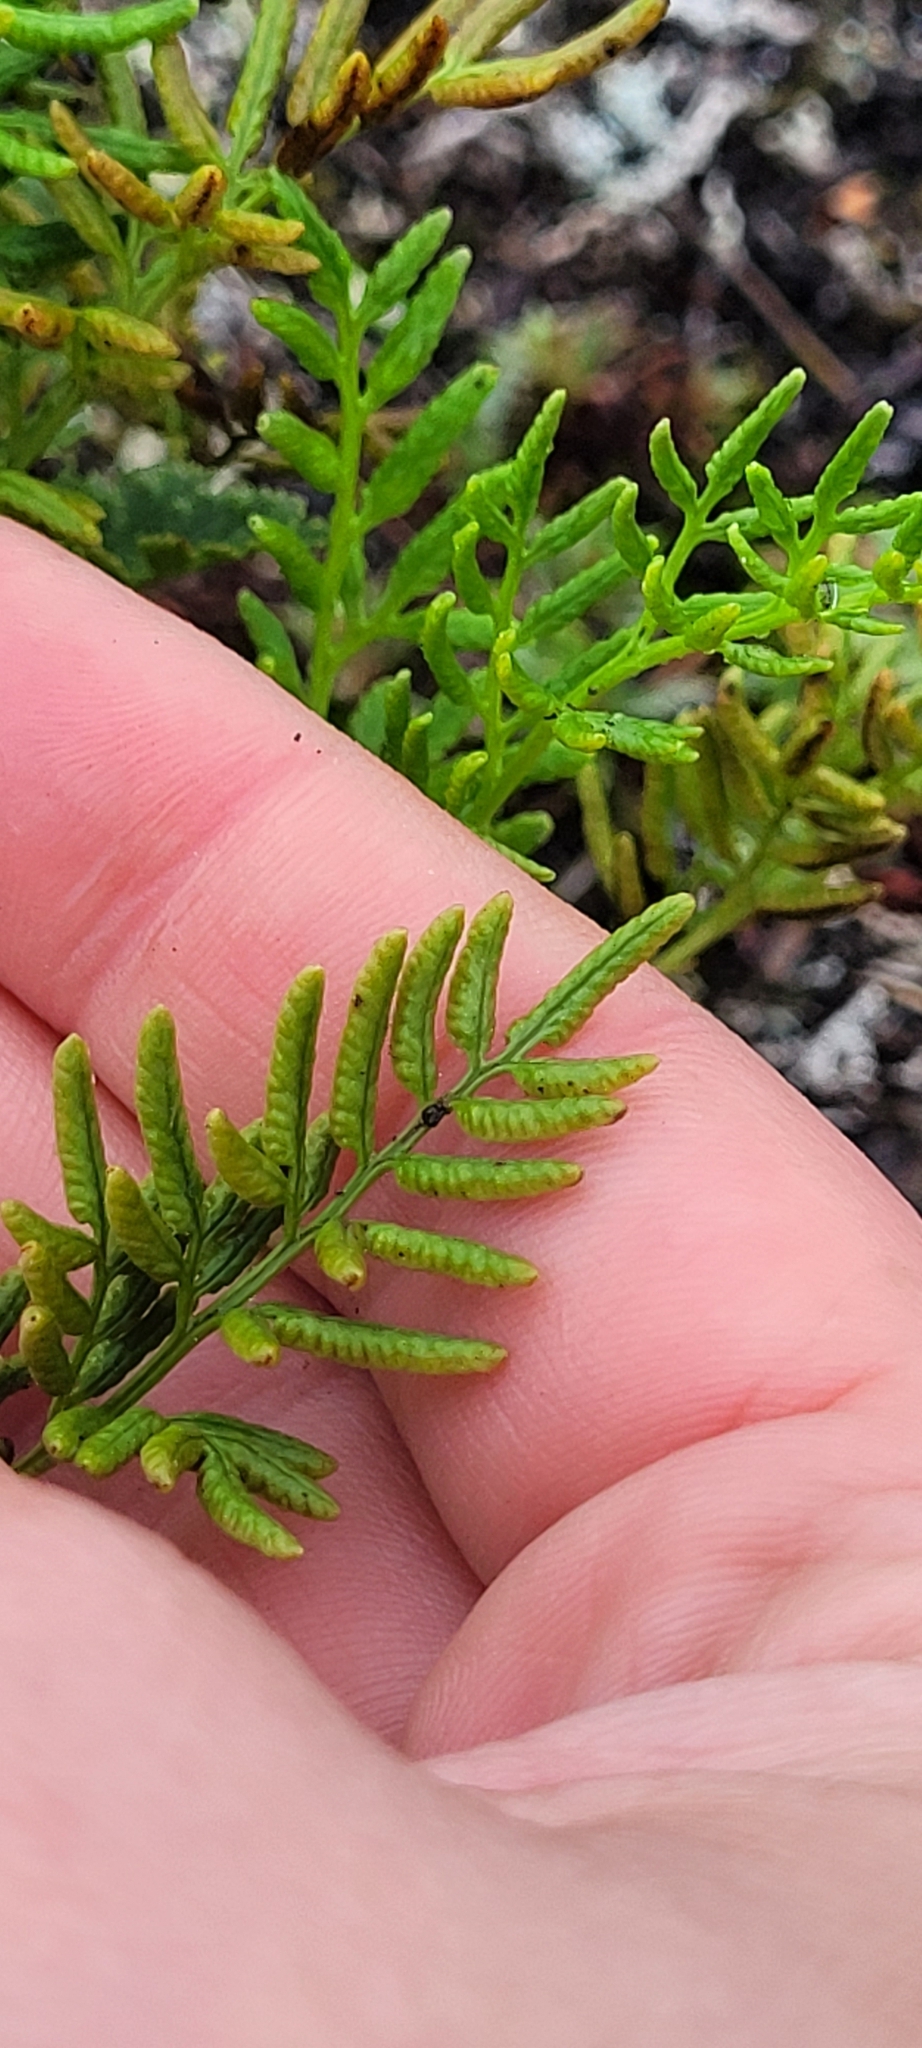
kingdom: Plantae
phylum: Tracheophyta
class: Polypodiopsida
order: Polypodiales
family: Pteridaceae
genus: Cryptogramma
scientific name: Cryptogramma acrostichoides
